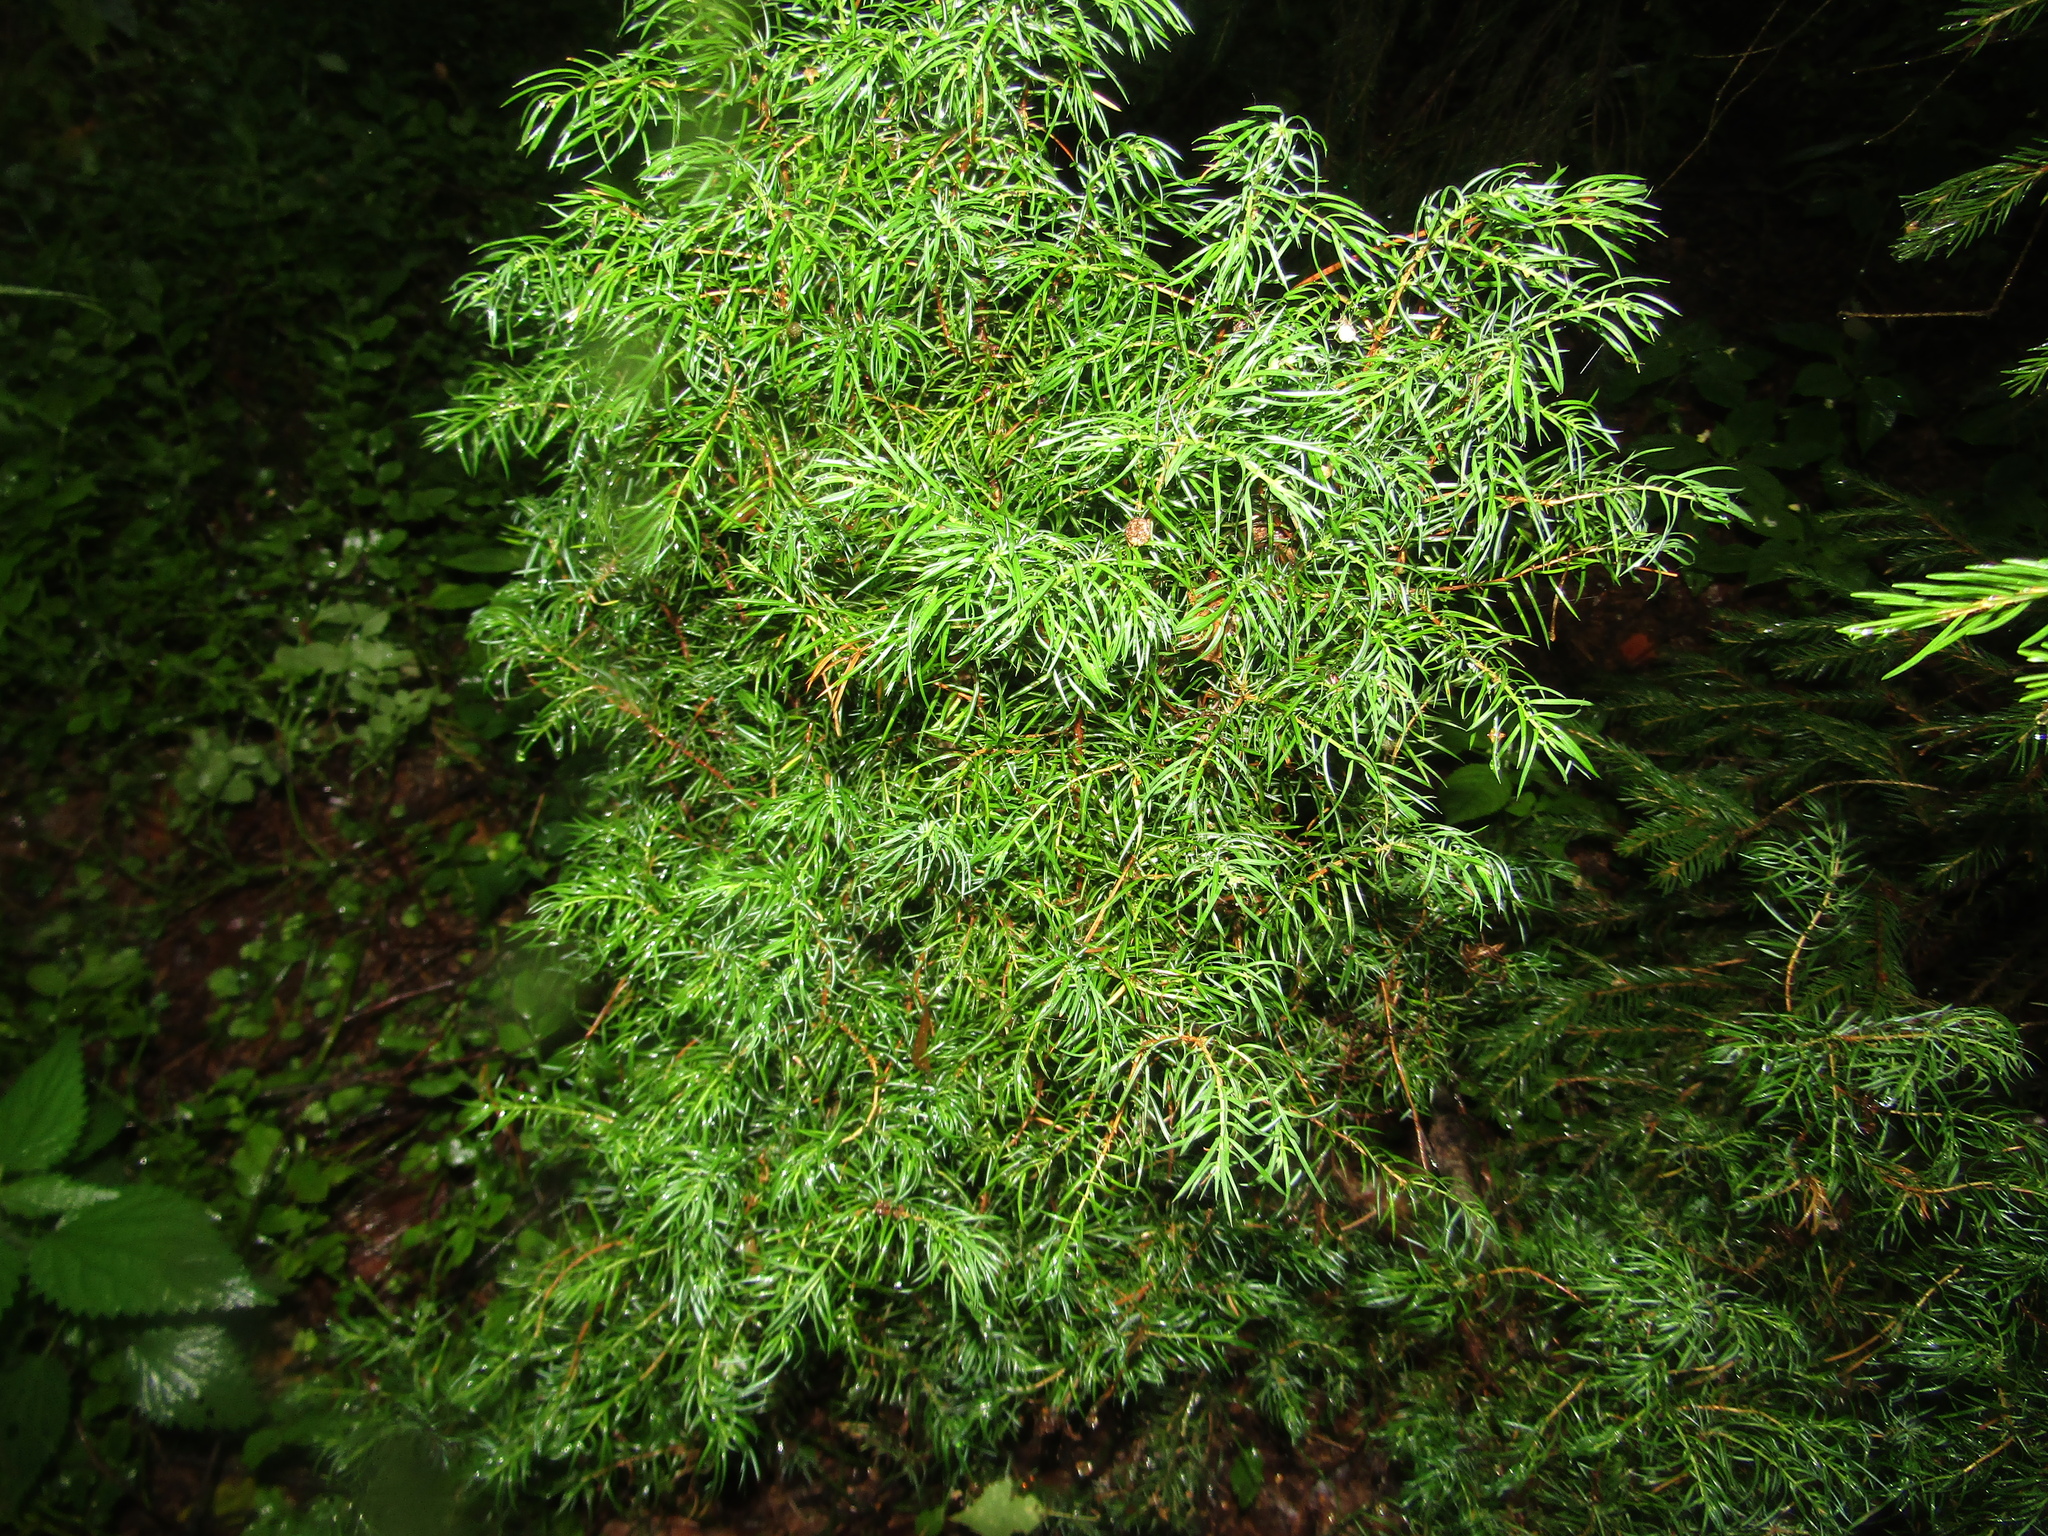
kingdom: Plantae
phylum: Tracheophyta
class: Pinopsida
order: Pinales
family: Cupressaceae
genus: Juniperus
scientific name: Juniperus communis
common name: Common juniper
